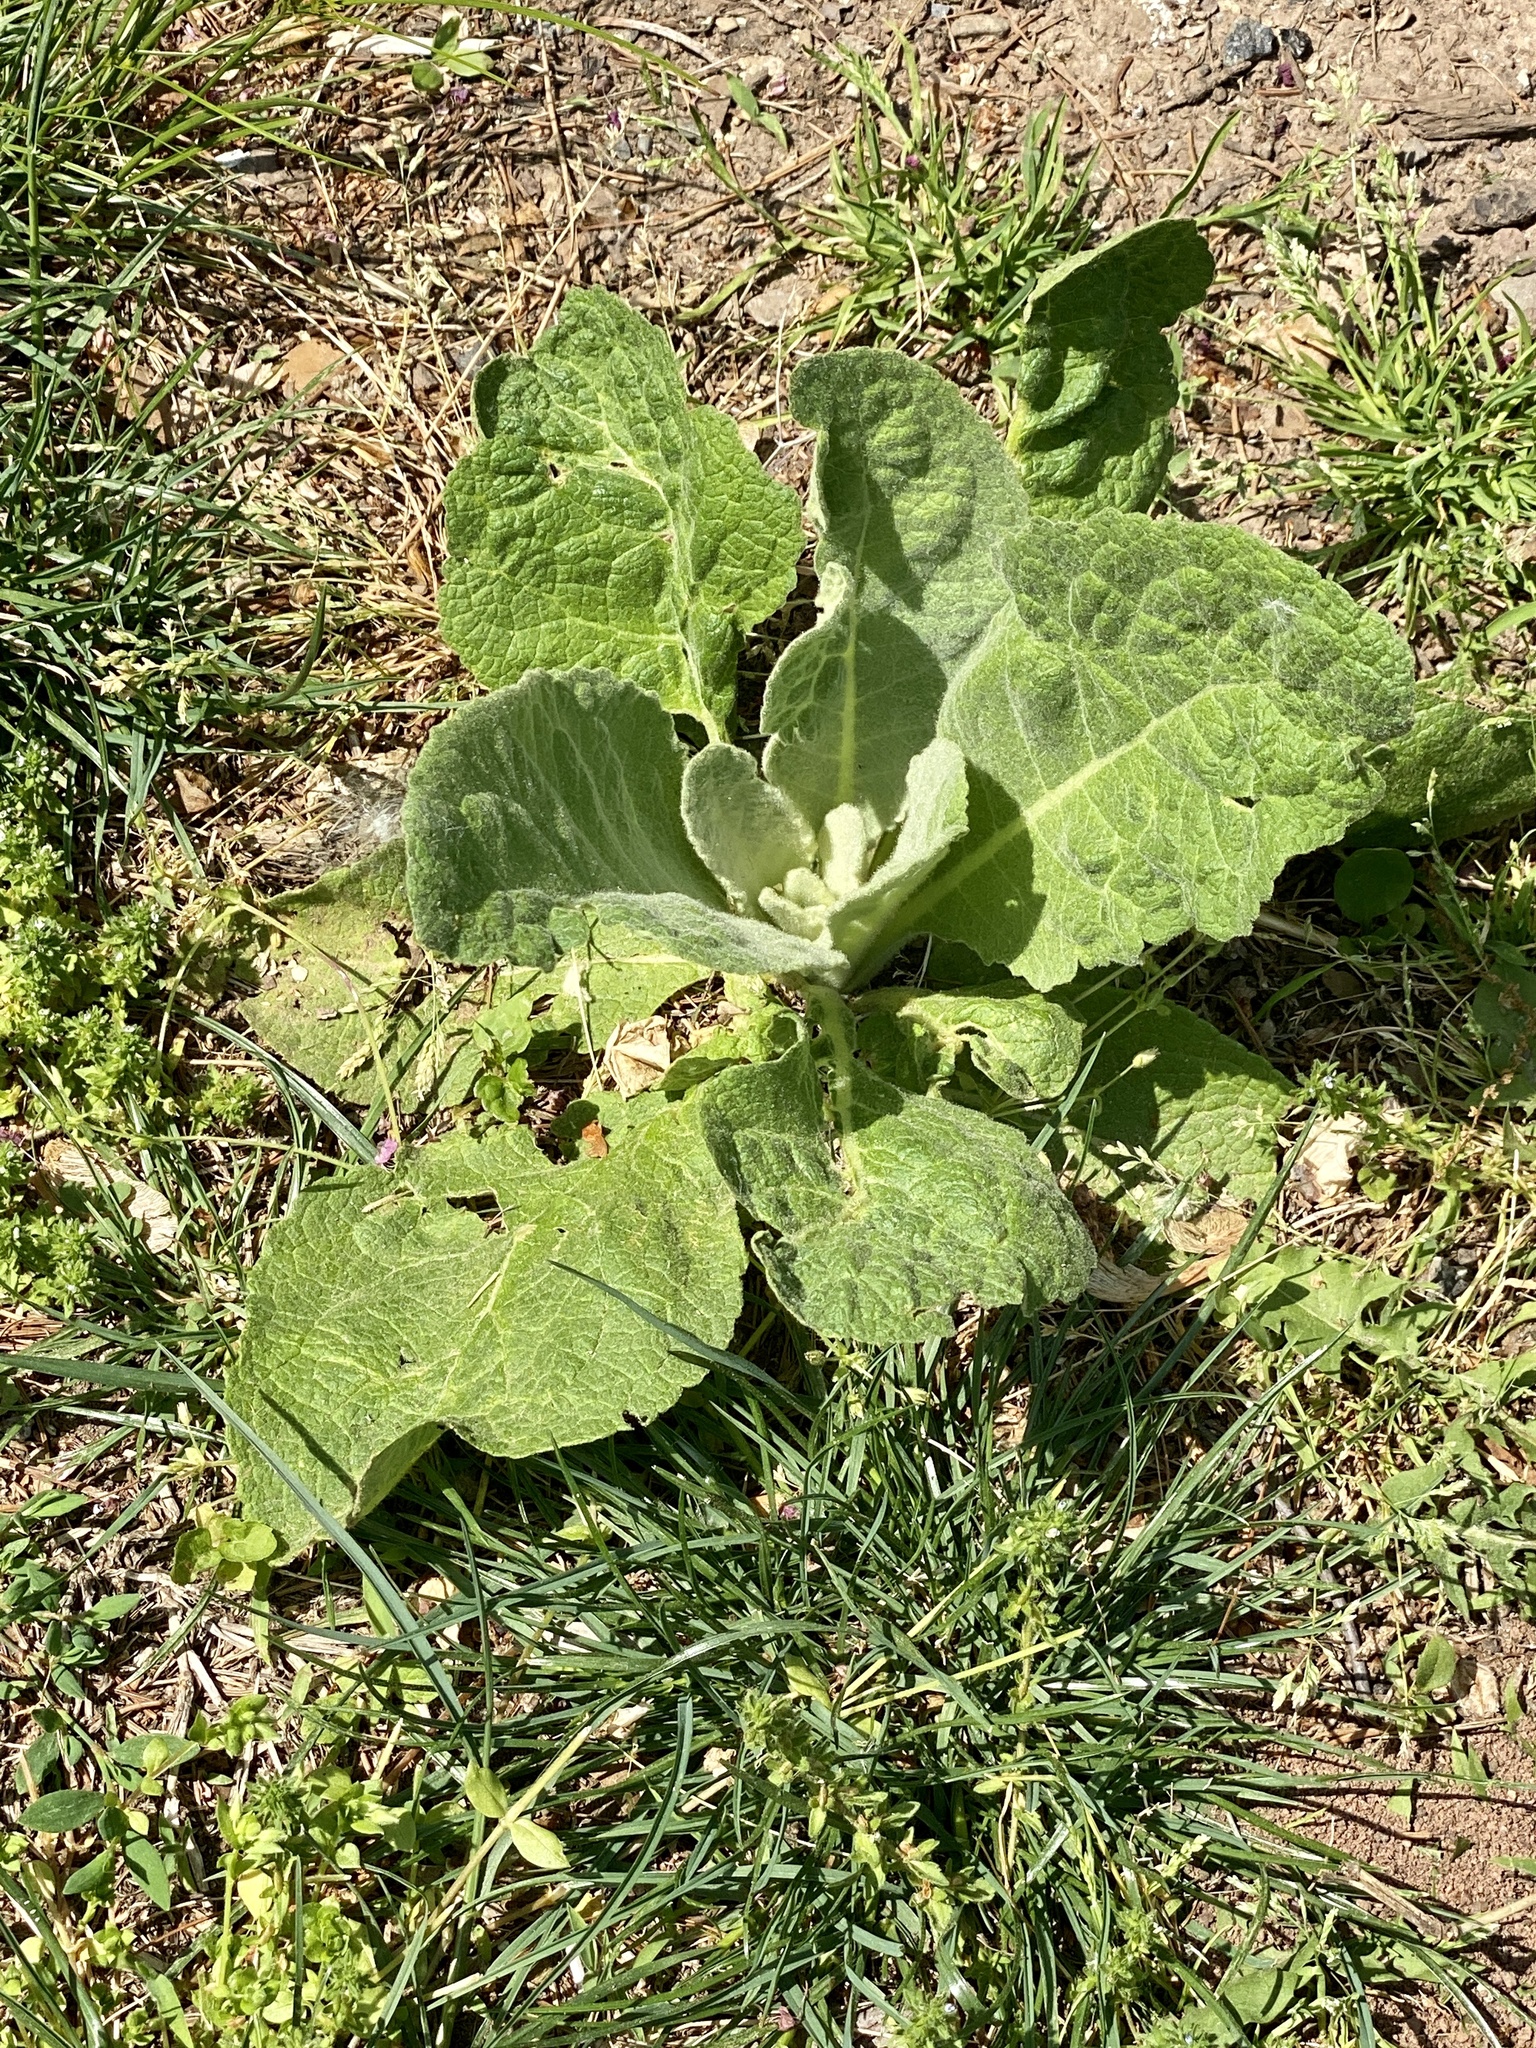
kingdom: Plantae
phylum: Tracheophyta
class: Magnoliopsida
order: Lamiales
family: Scrophulariaceae
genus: Verbascum
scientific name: Verbascum thapsus
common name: Common mullein
